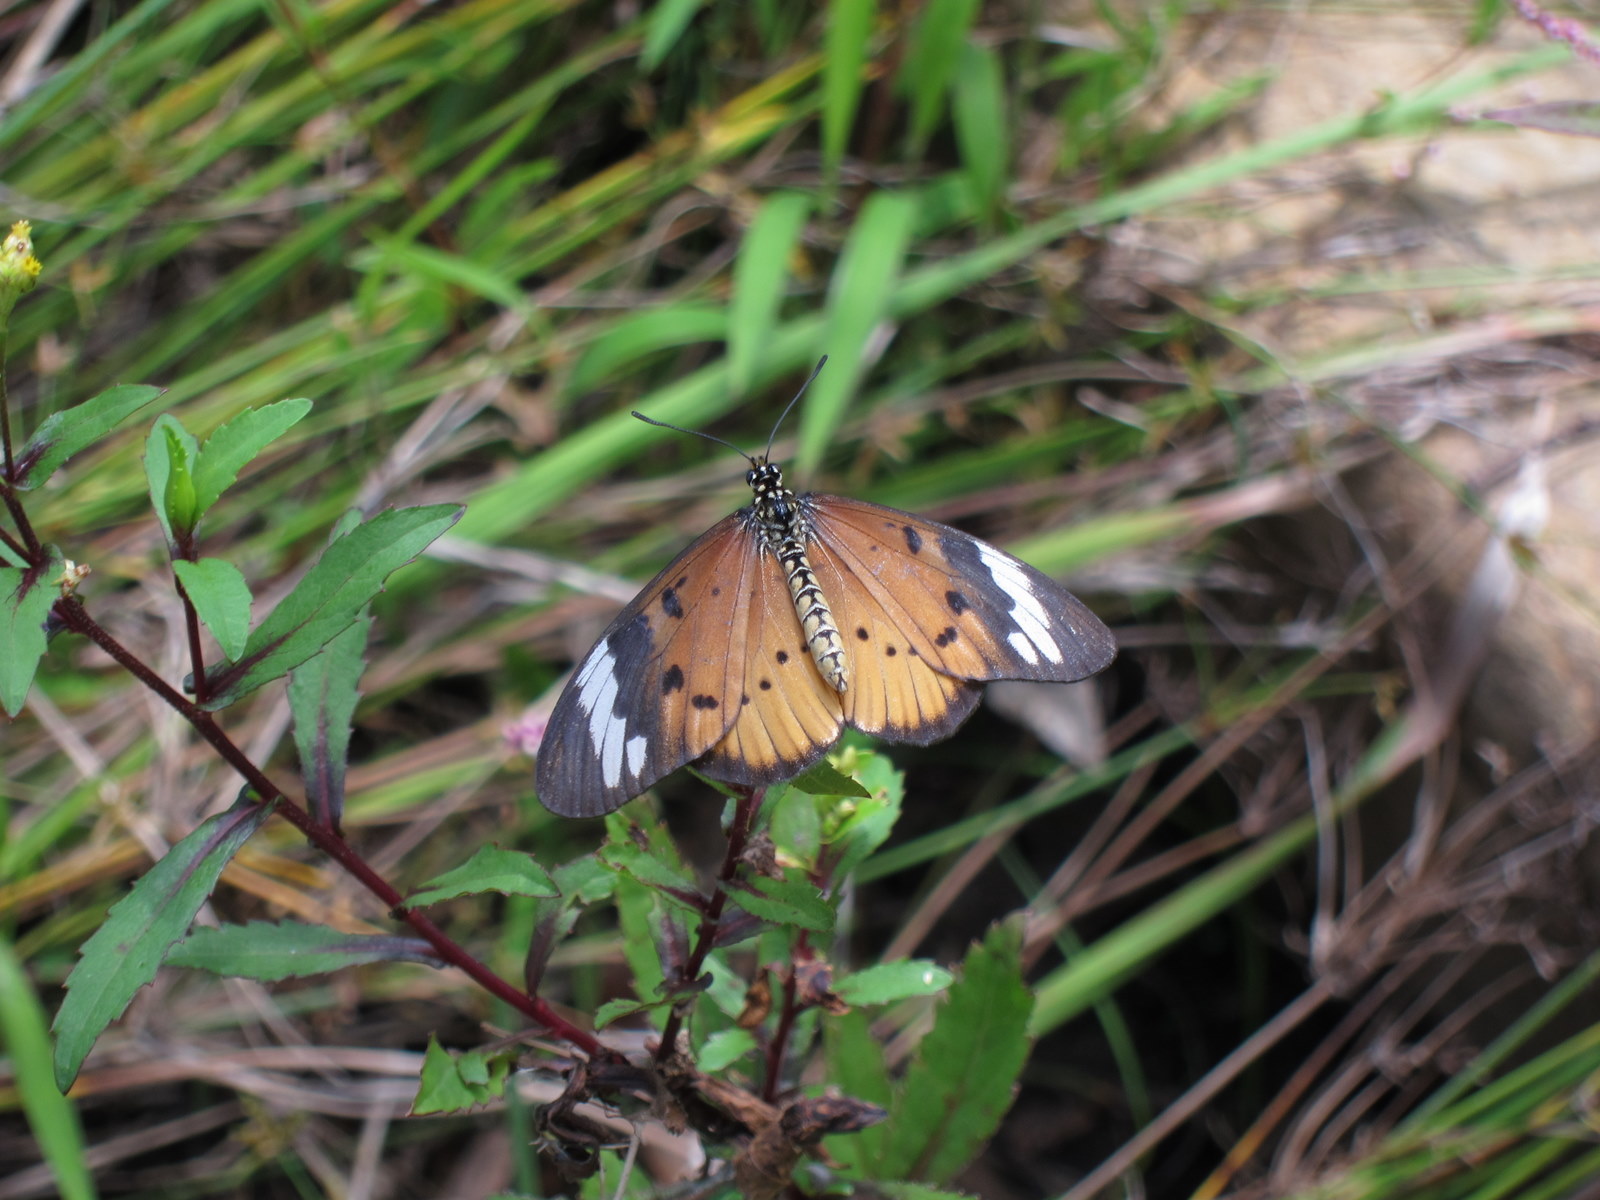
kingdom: Animalia
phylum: Arthropoda
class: Insecta
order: Lepidoptera
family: Nymphalidae
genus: Acraea
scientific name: Acraea Telchinia encedon
